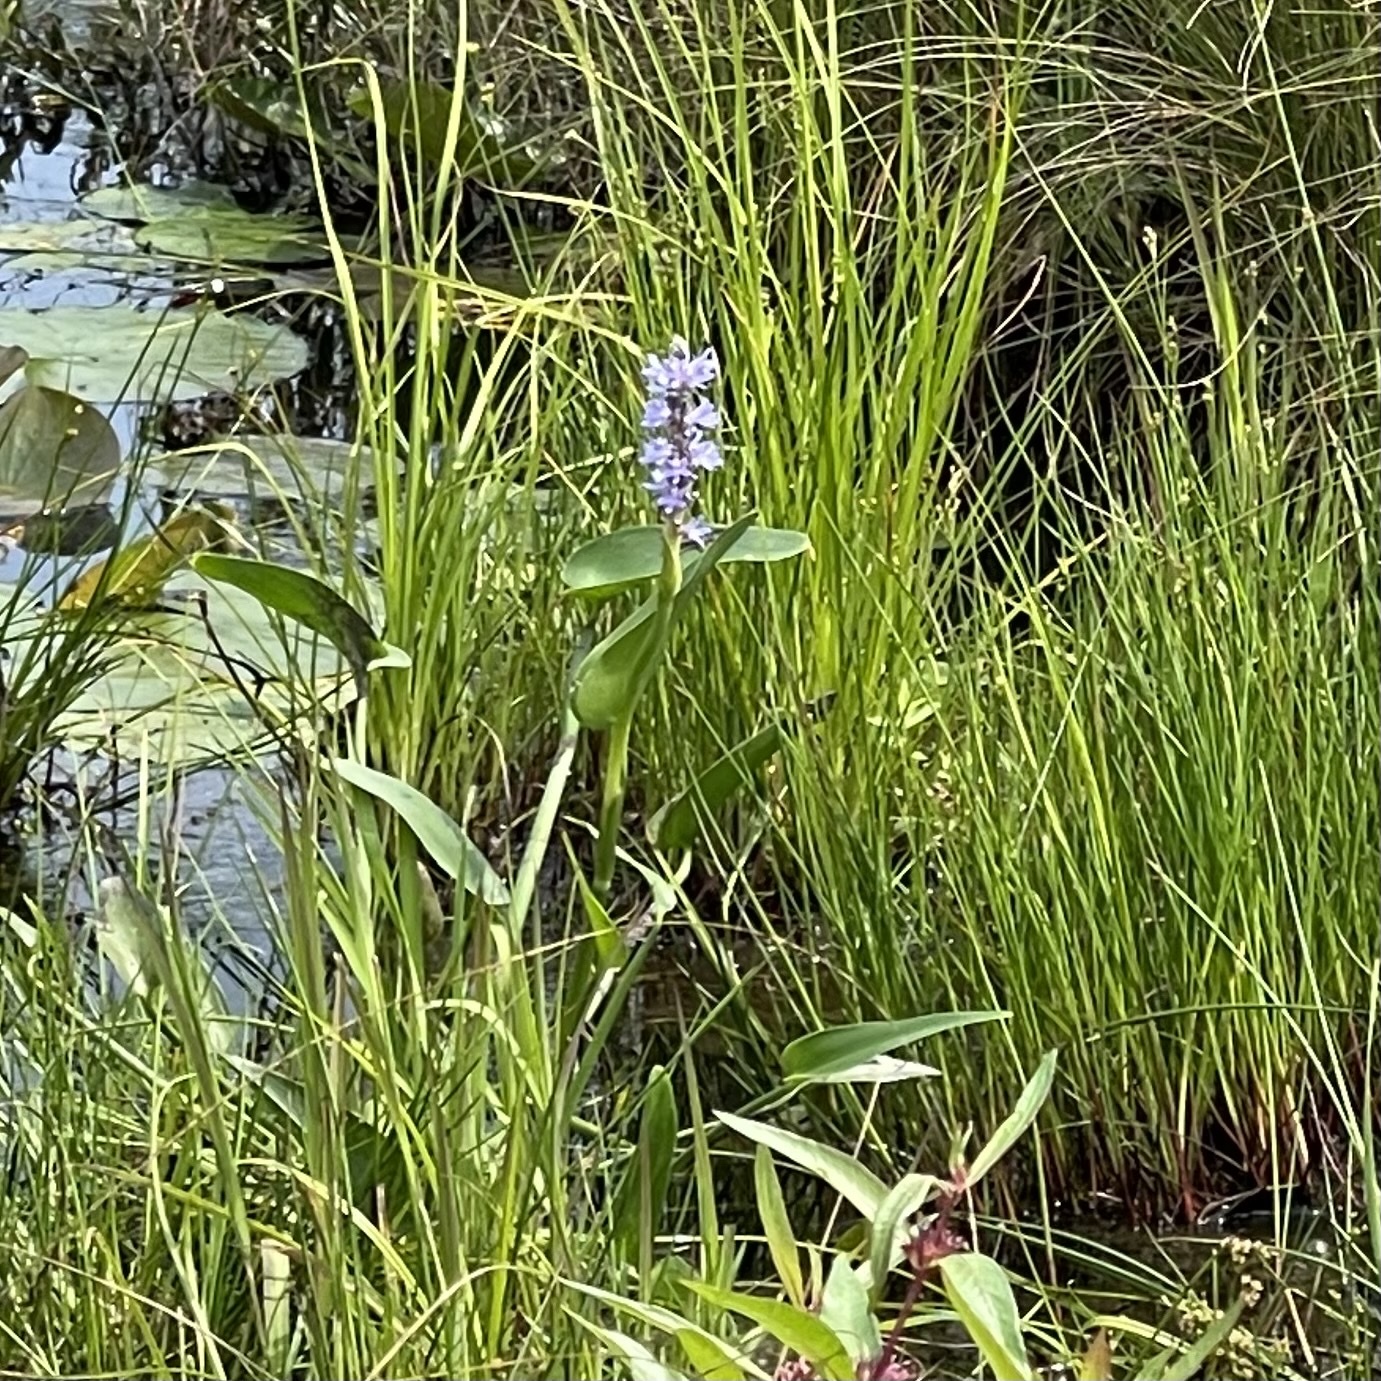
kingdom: Plantae
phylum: Tracheophyta
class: Liliopsida
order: Commelinales
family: Pontederiaceae
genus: Pontederia
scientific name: Pontederia cordata
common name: Pickerelweed
